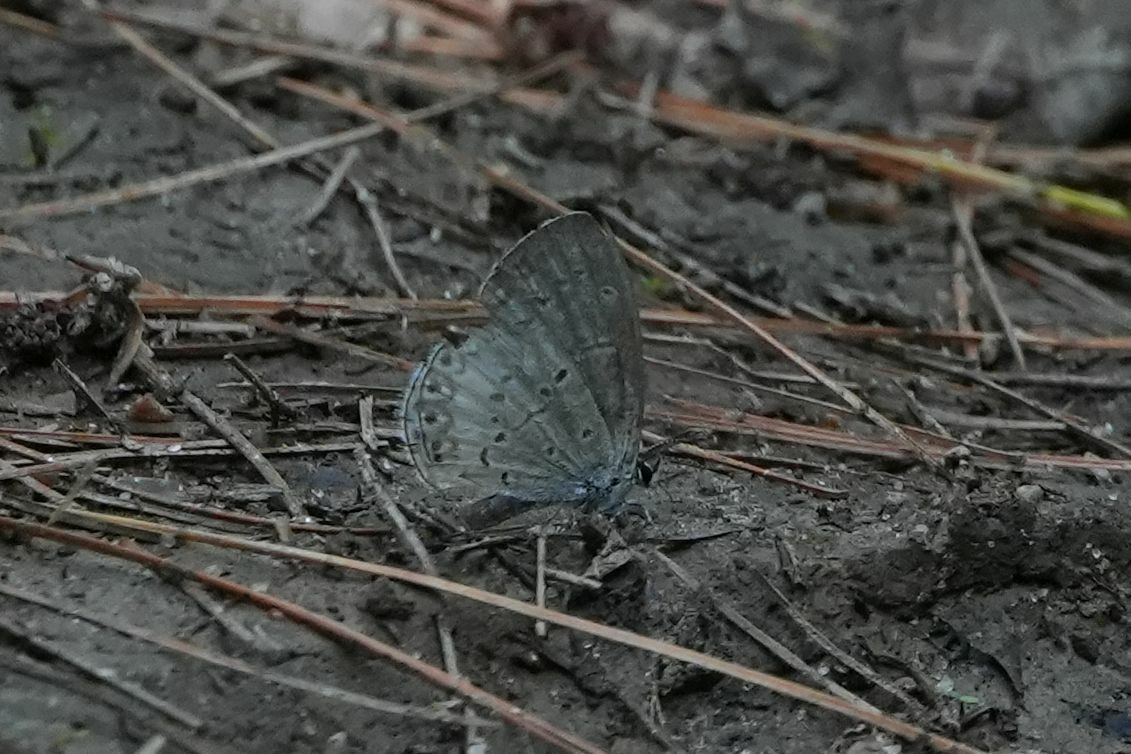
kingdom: Animalia
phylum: Arthropoda
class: Insecta
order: Lepidoptera
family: Lycaenidae
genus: Celastrina
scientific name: Celastrina lucia
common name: Lucia azure
